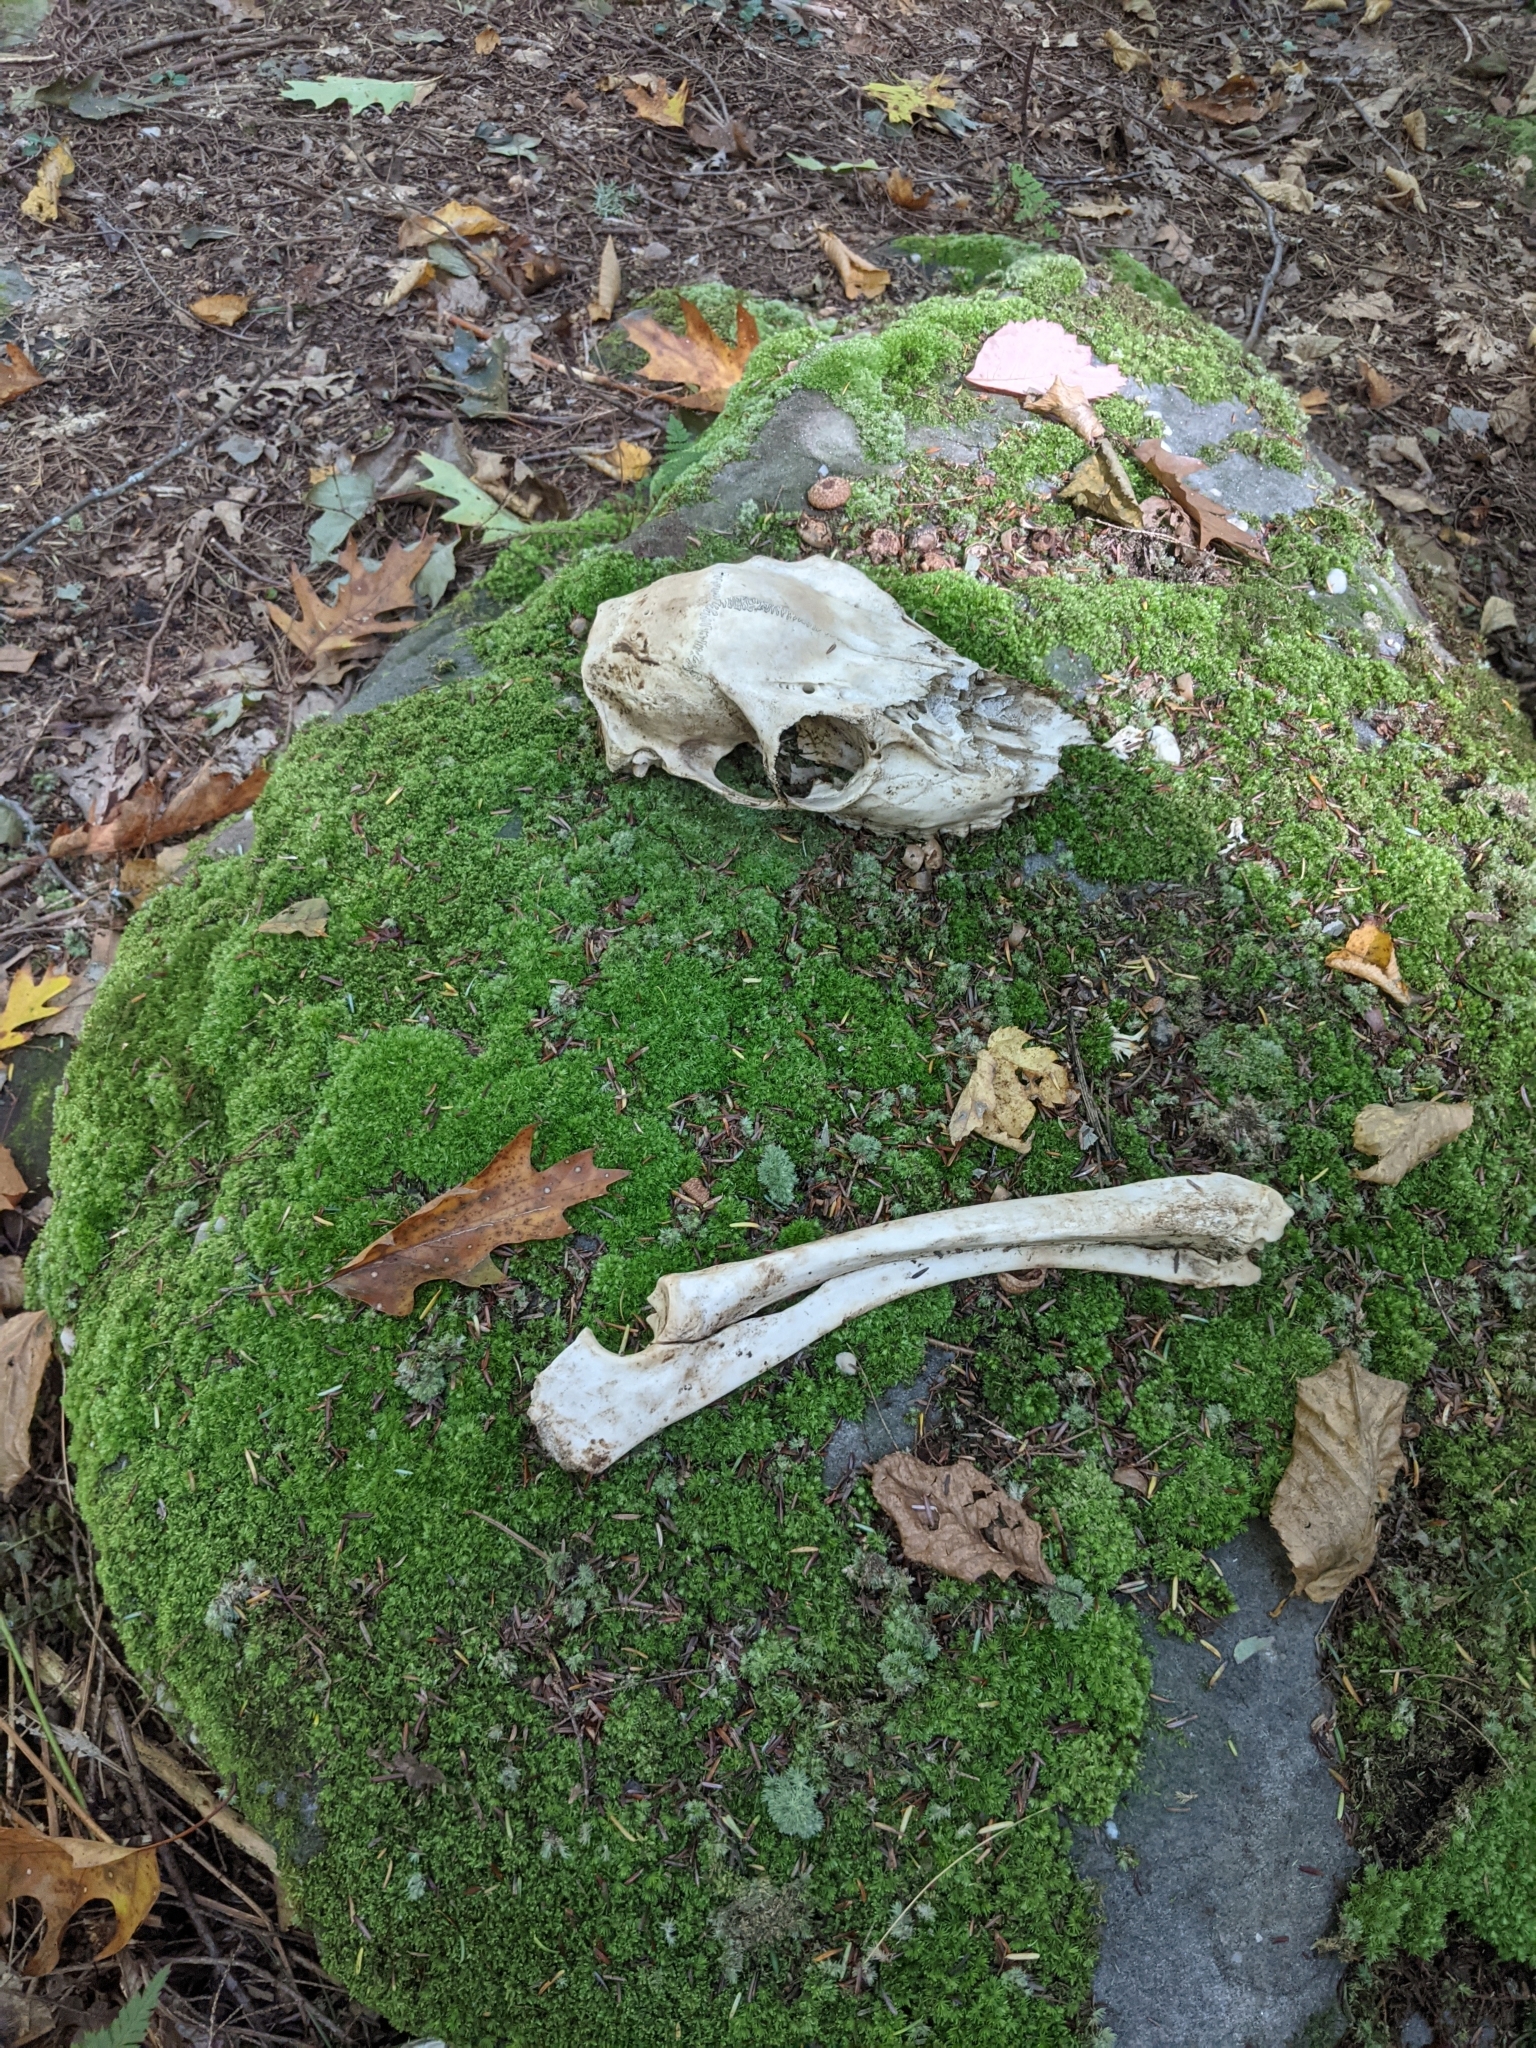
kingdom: Animalia
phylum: Chordata
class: Mammalia
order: Artiodactyla
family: Cervidae
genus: Odocoileus
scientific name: Odocoileus virginianus
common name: White-tailed deer
